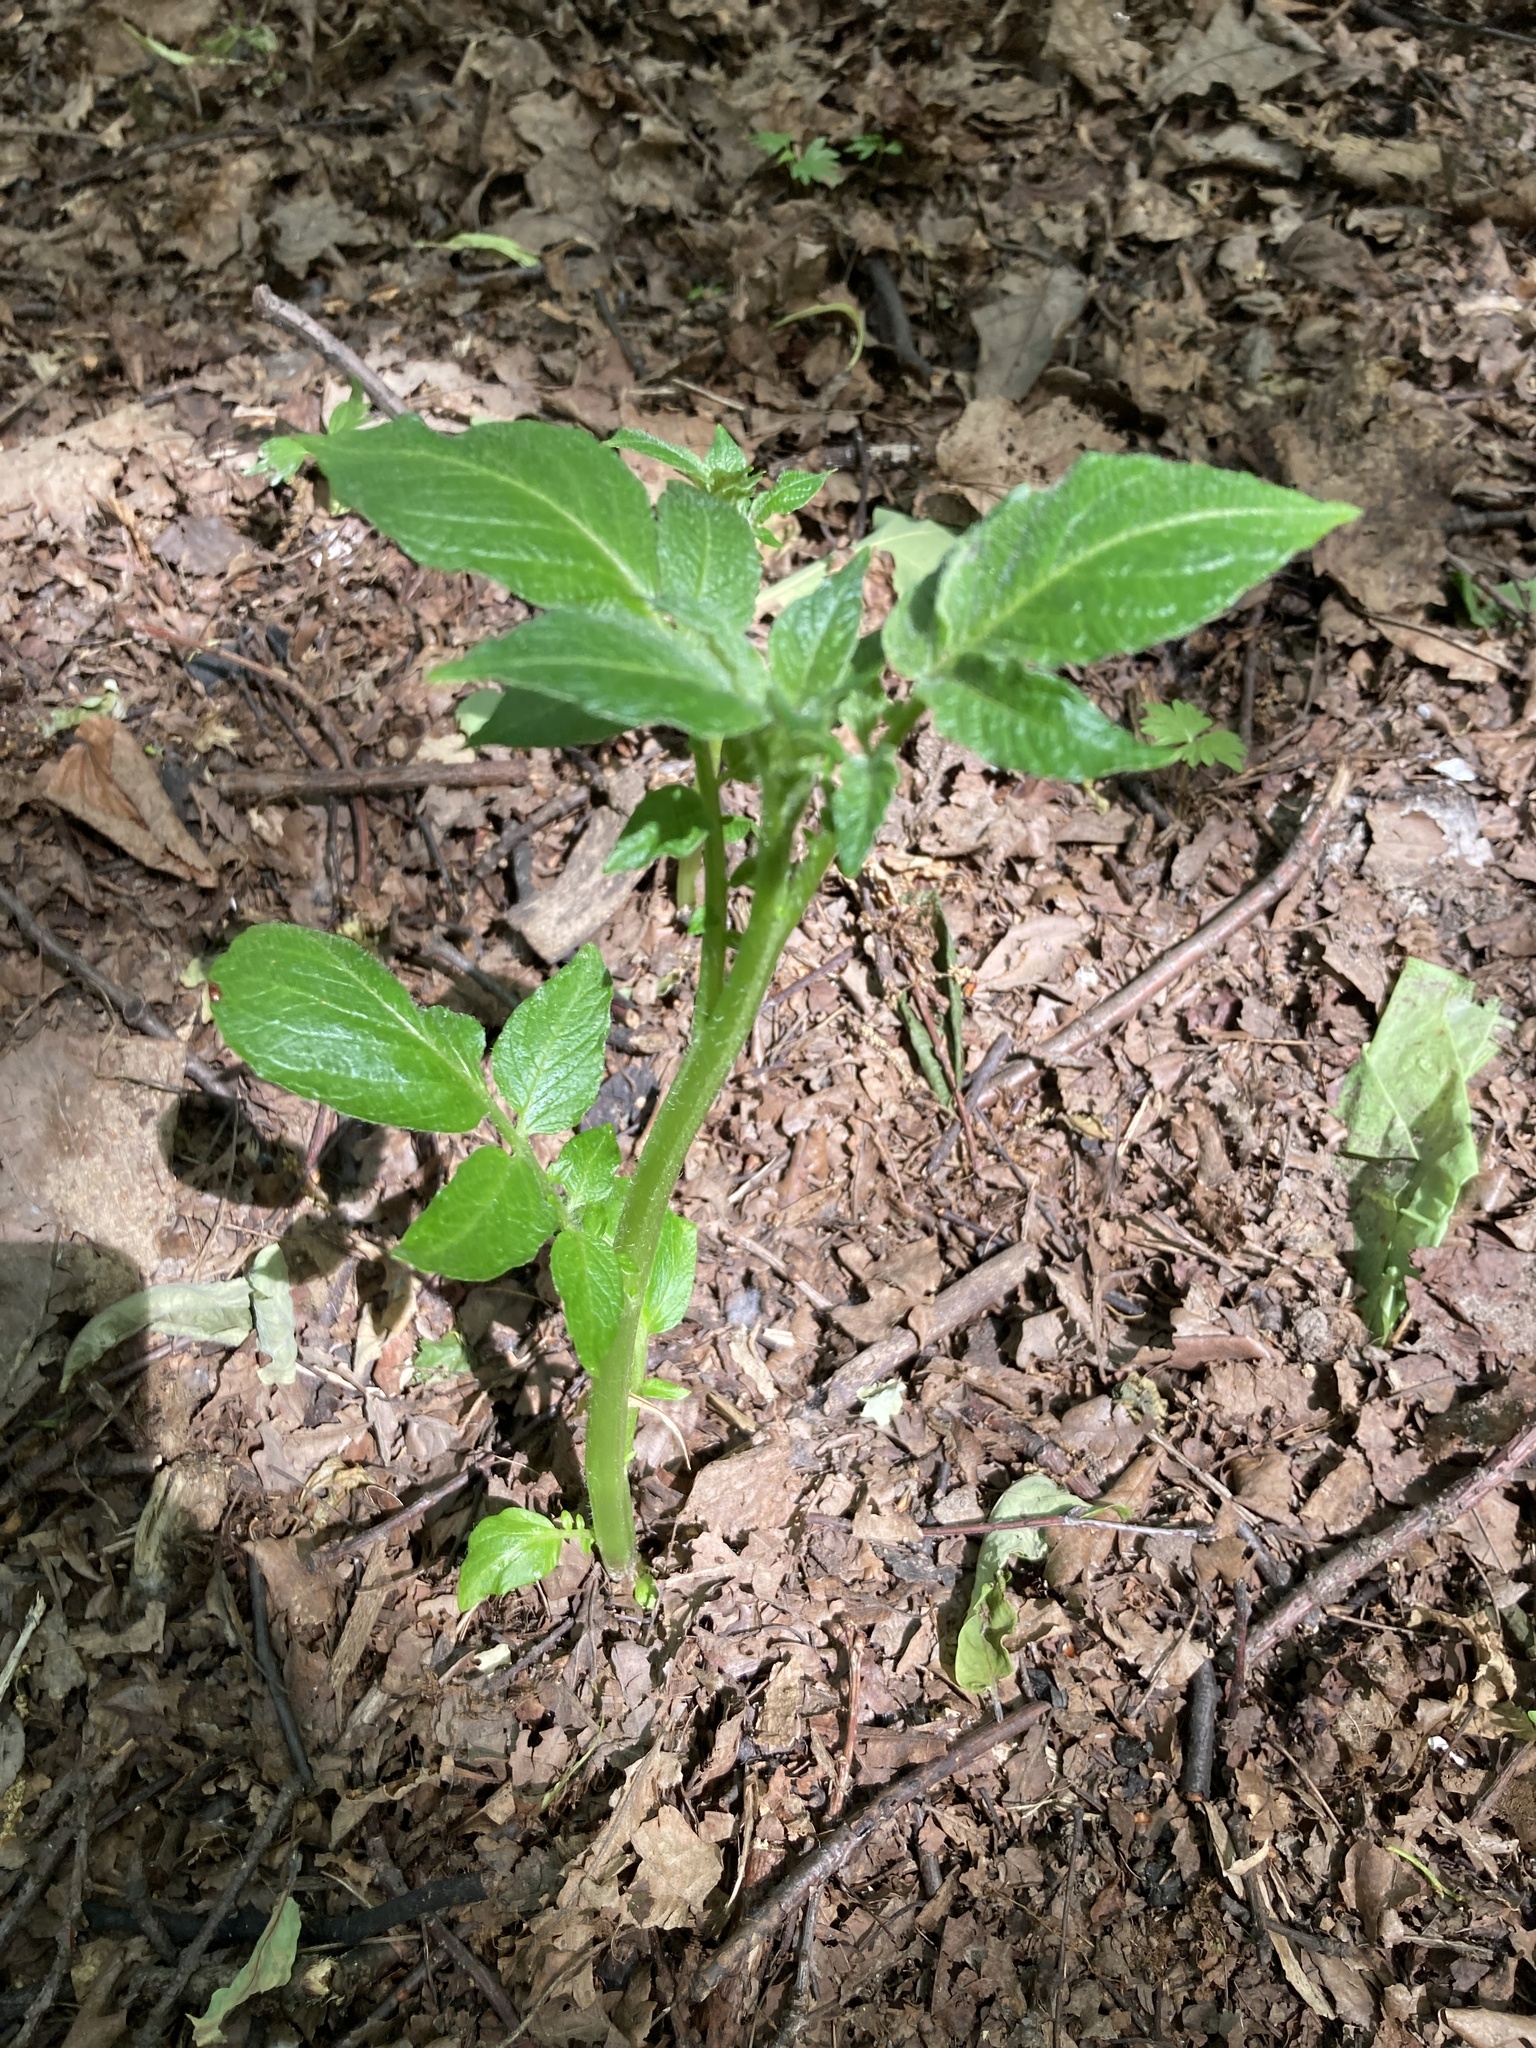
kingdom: Plantae
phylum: Tracheophyta
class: Magnoliopsida
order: Solanales
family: Solanaceae
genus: Solanum
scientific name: Solanum tuberosum
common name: Potato
